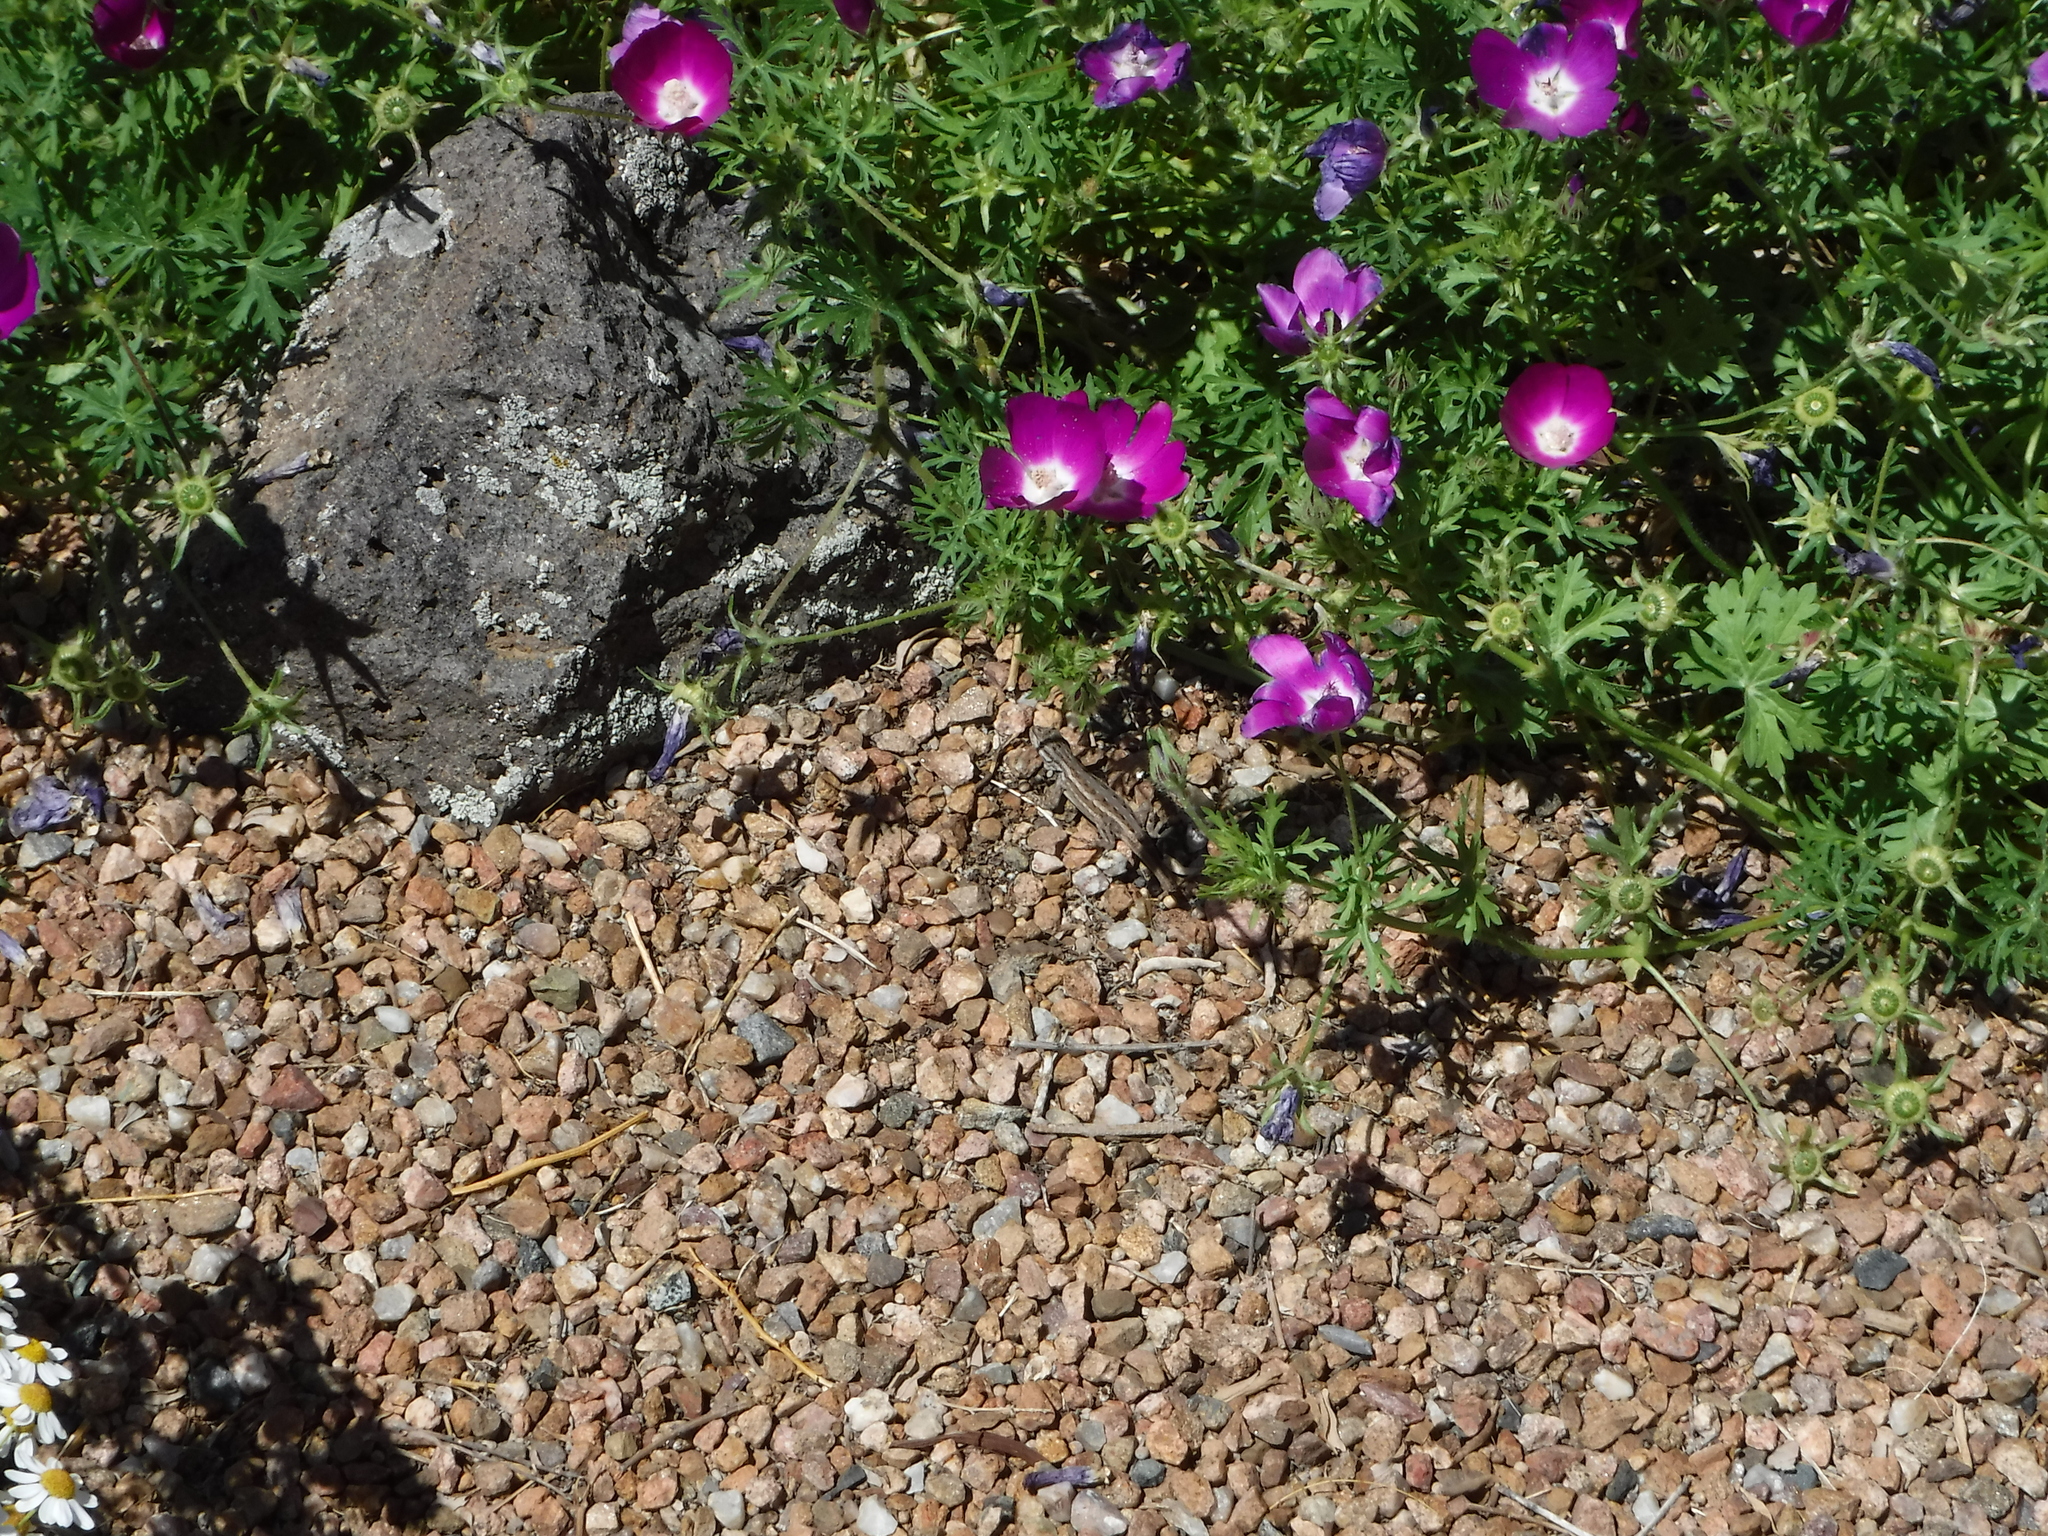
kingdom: Animalia
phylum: Chordata
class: Squamata
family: Phrynosomatidae
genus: Sceloporus
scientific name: Sceloporus cowlesi
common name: White sands prairie lizard
